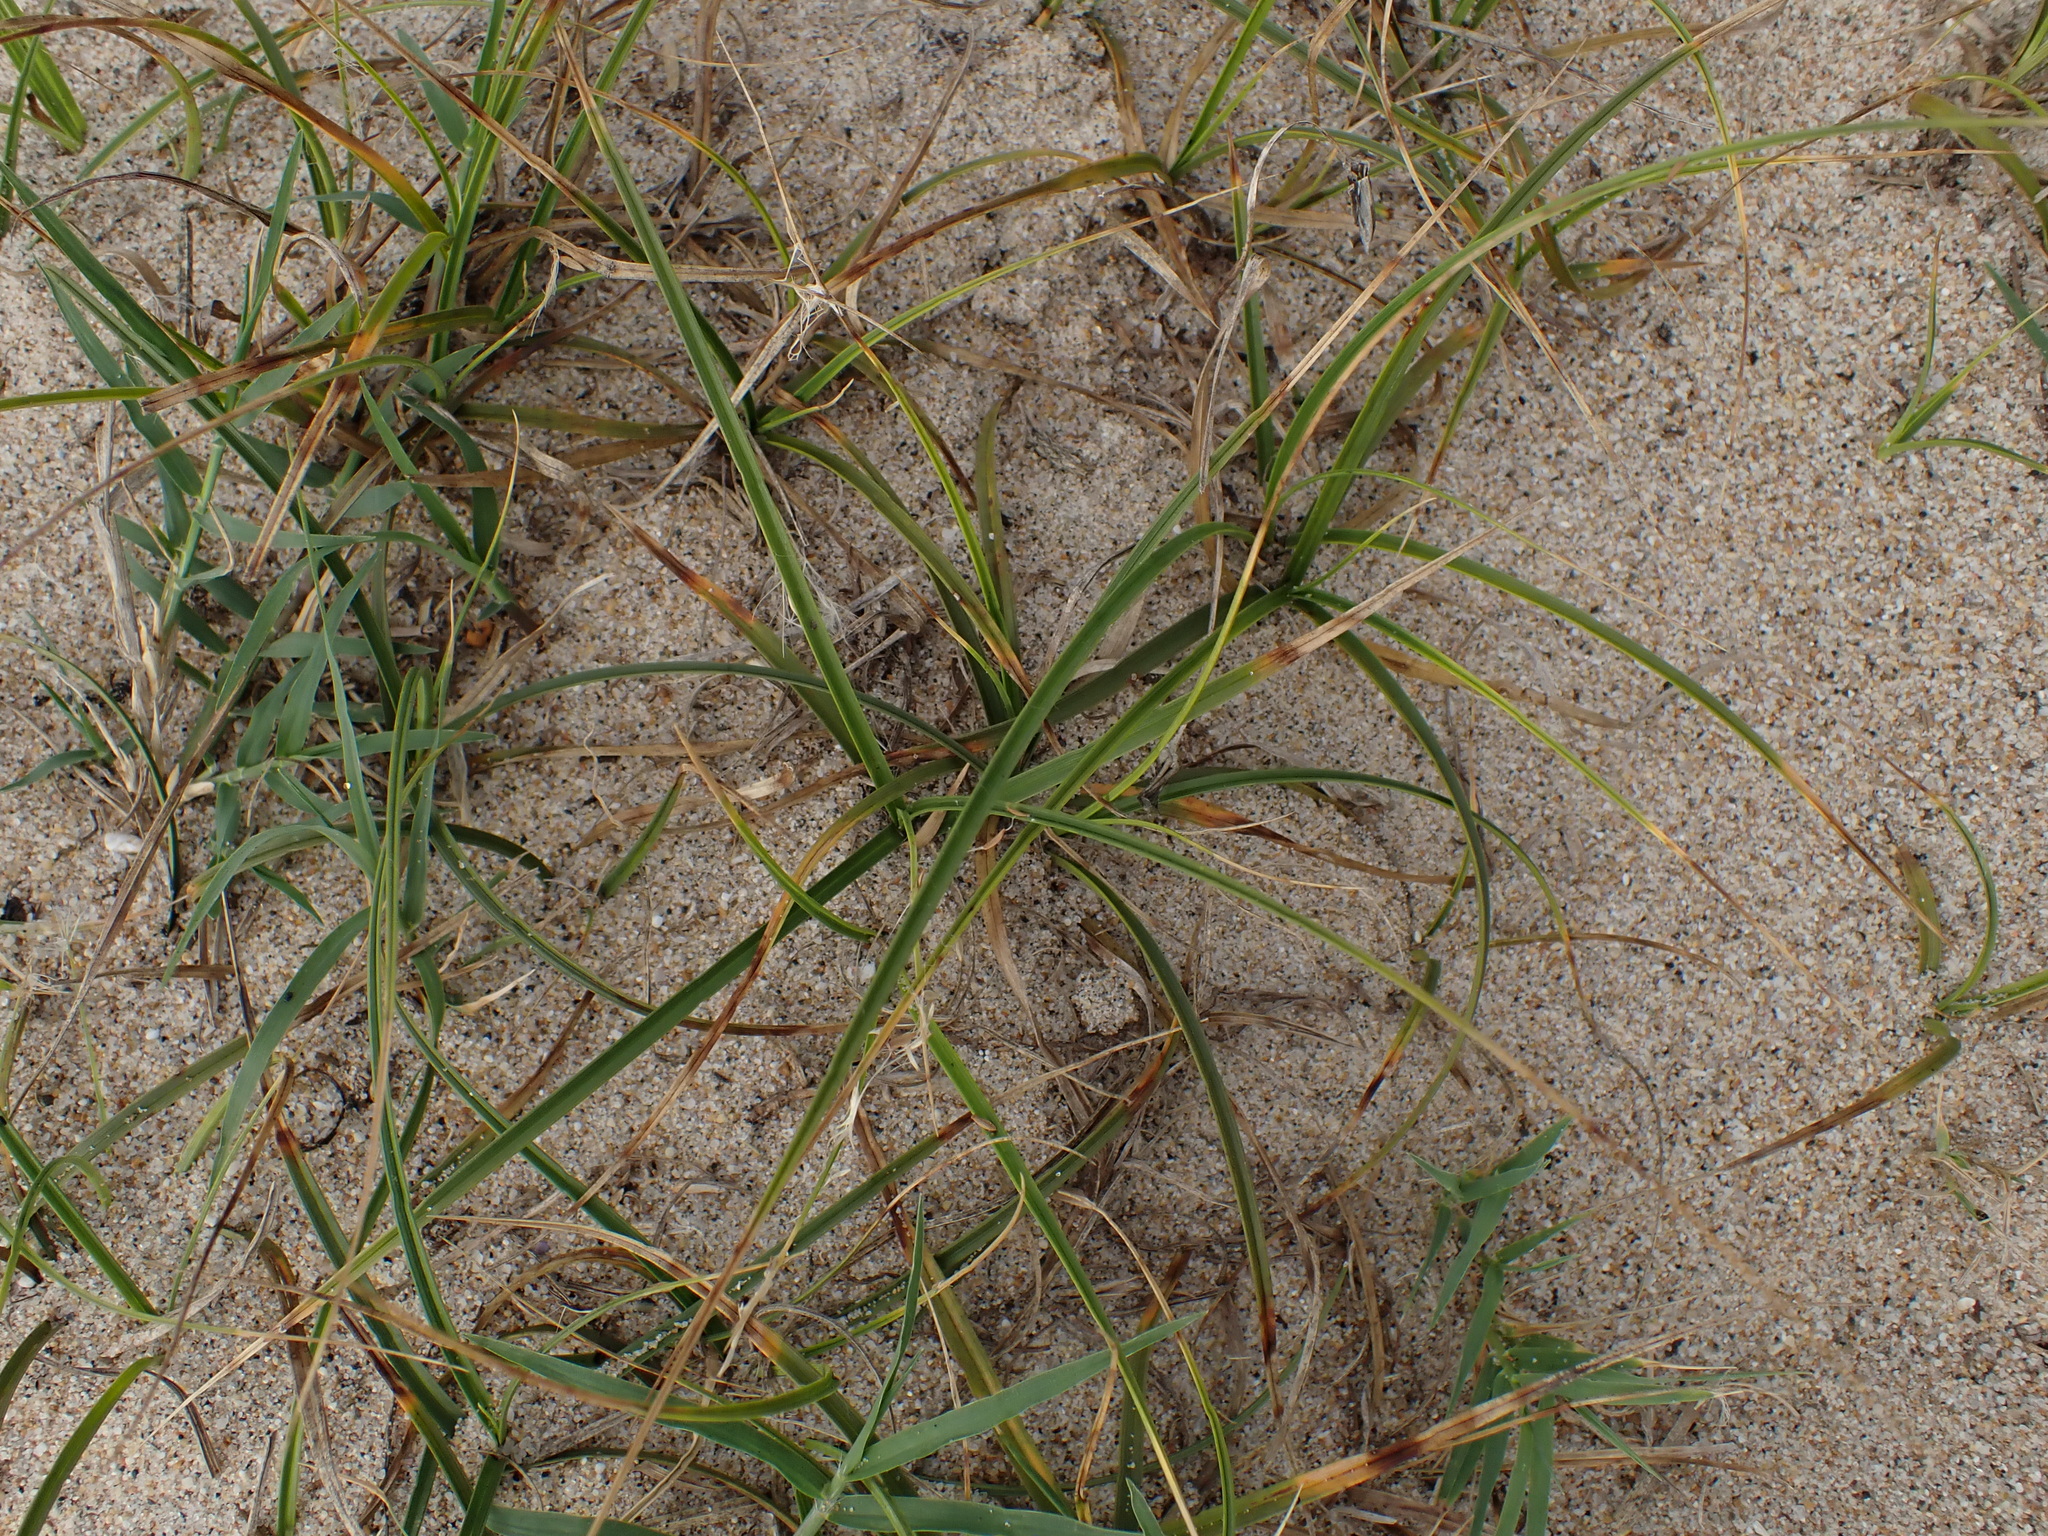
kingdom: Plantae
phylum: Tracheophyta
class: Liliopsida
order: Poales
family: Cyperaceae
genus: Carex
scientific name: Carex arenaria
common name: Sand sedge
